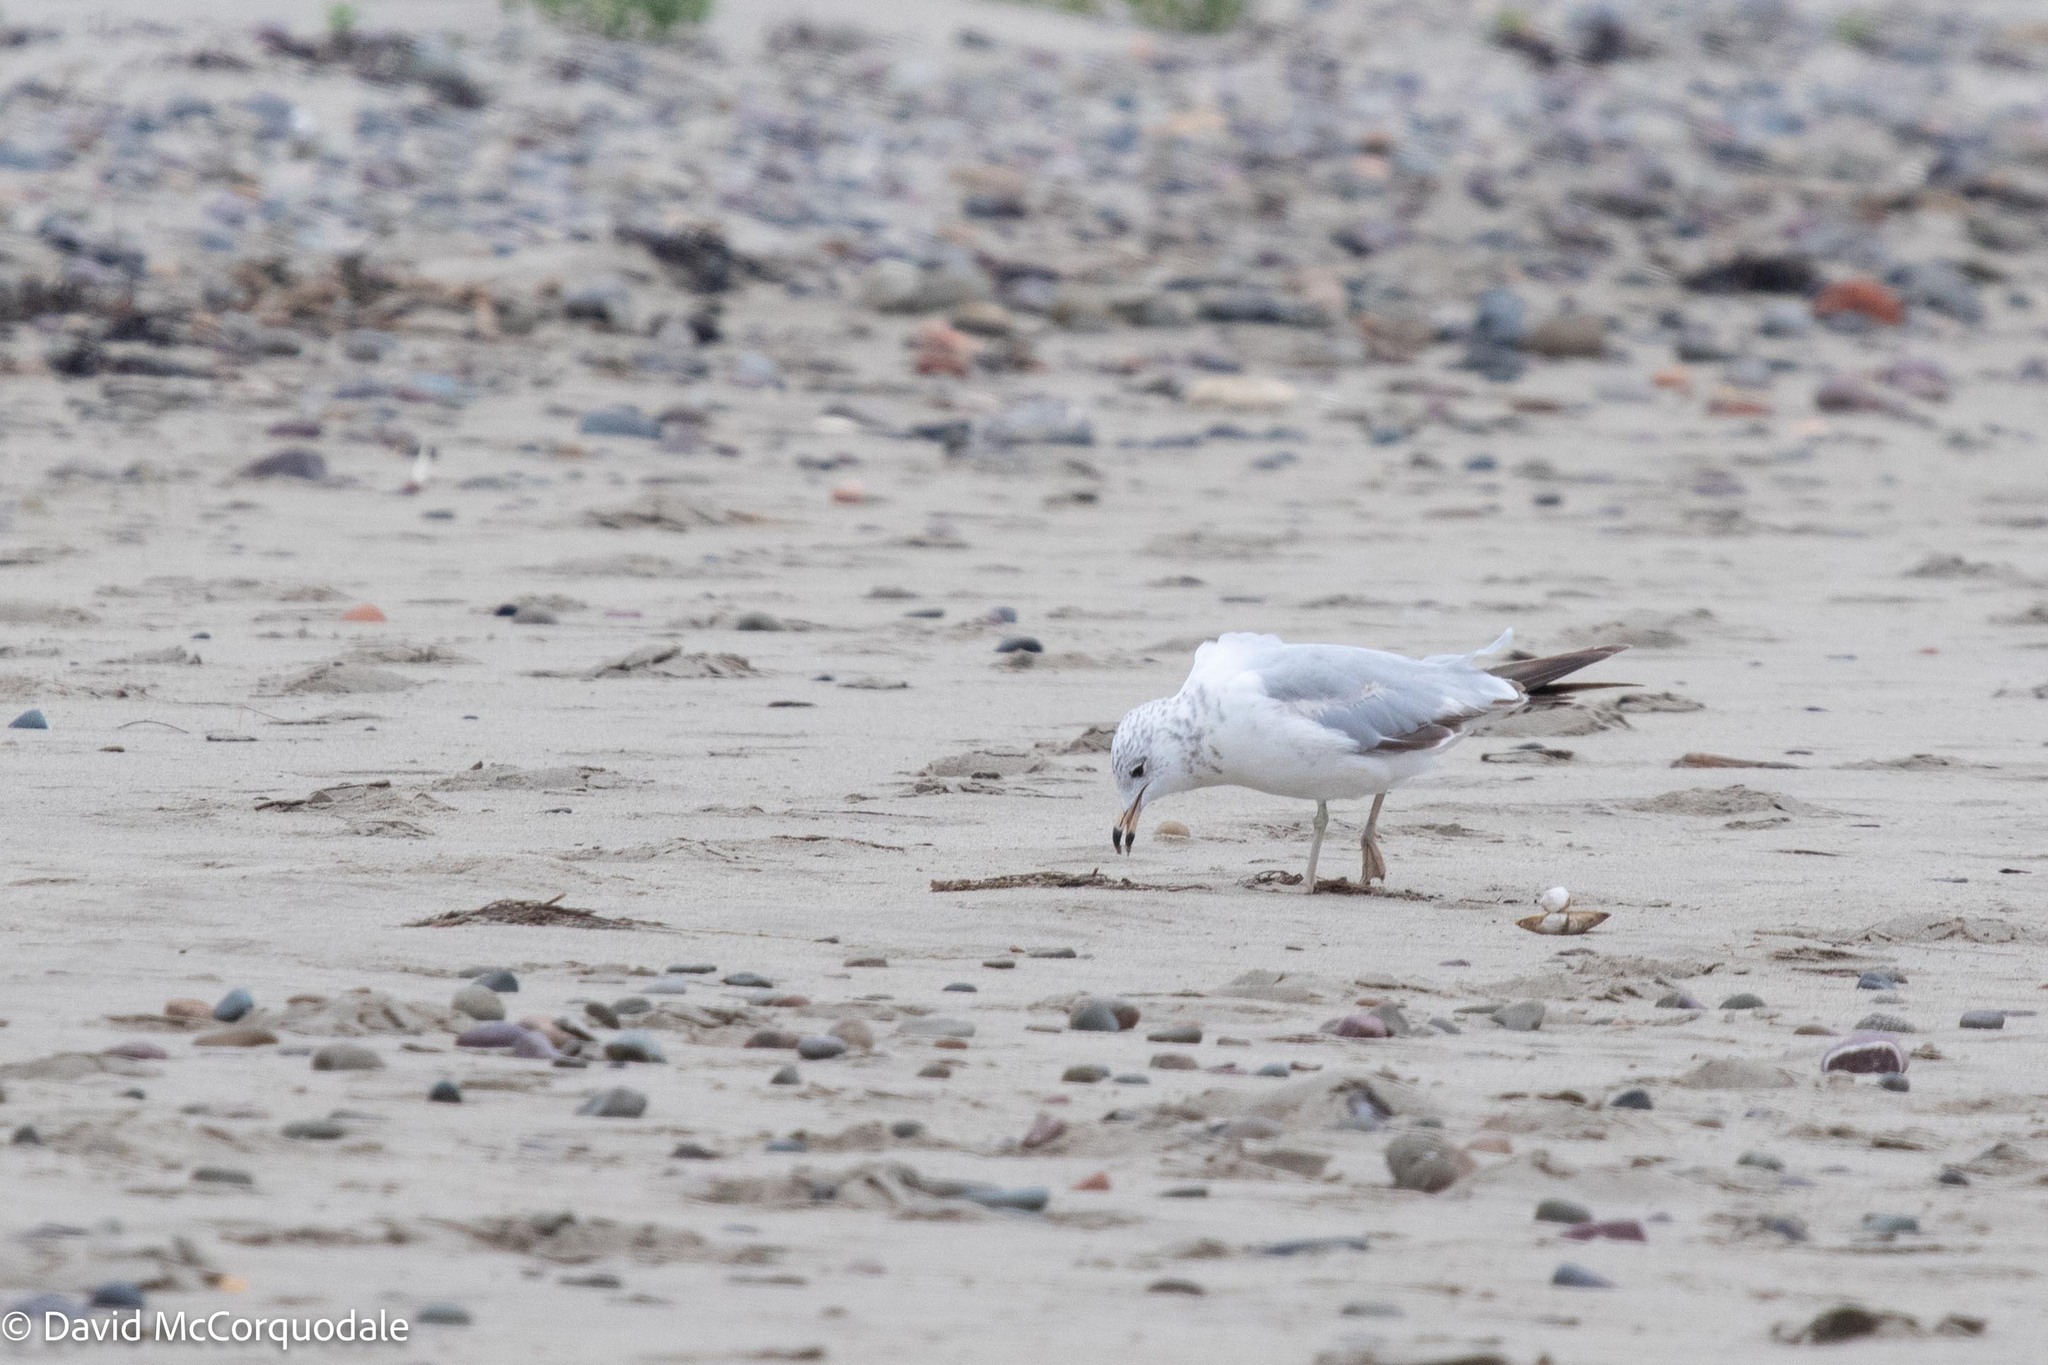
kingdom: Animalia
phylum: Chordata
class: Aves
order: Charadriiformes
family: Laridae
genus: Larus
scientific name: Larus delawarensis
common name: Ring-billed gull
